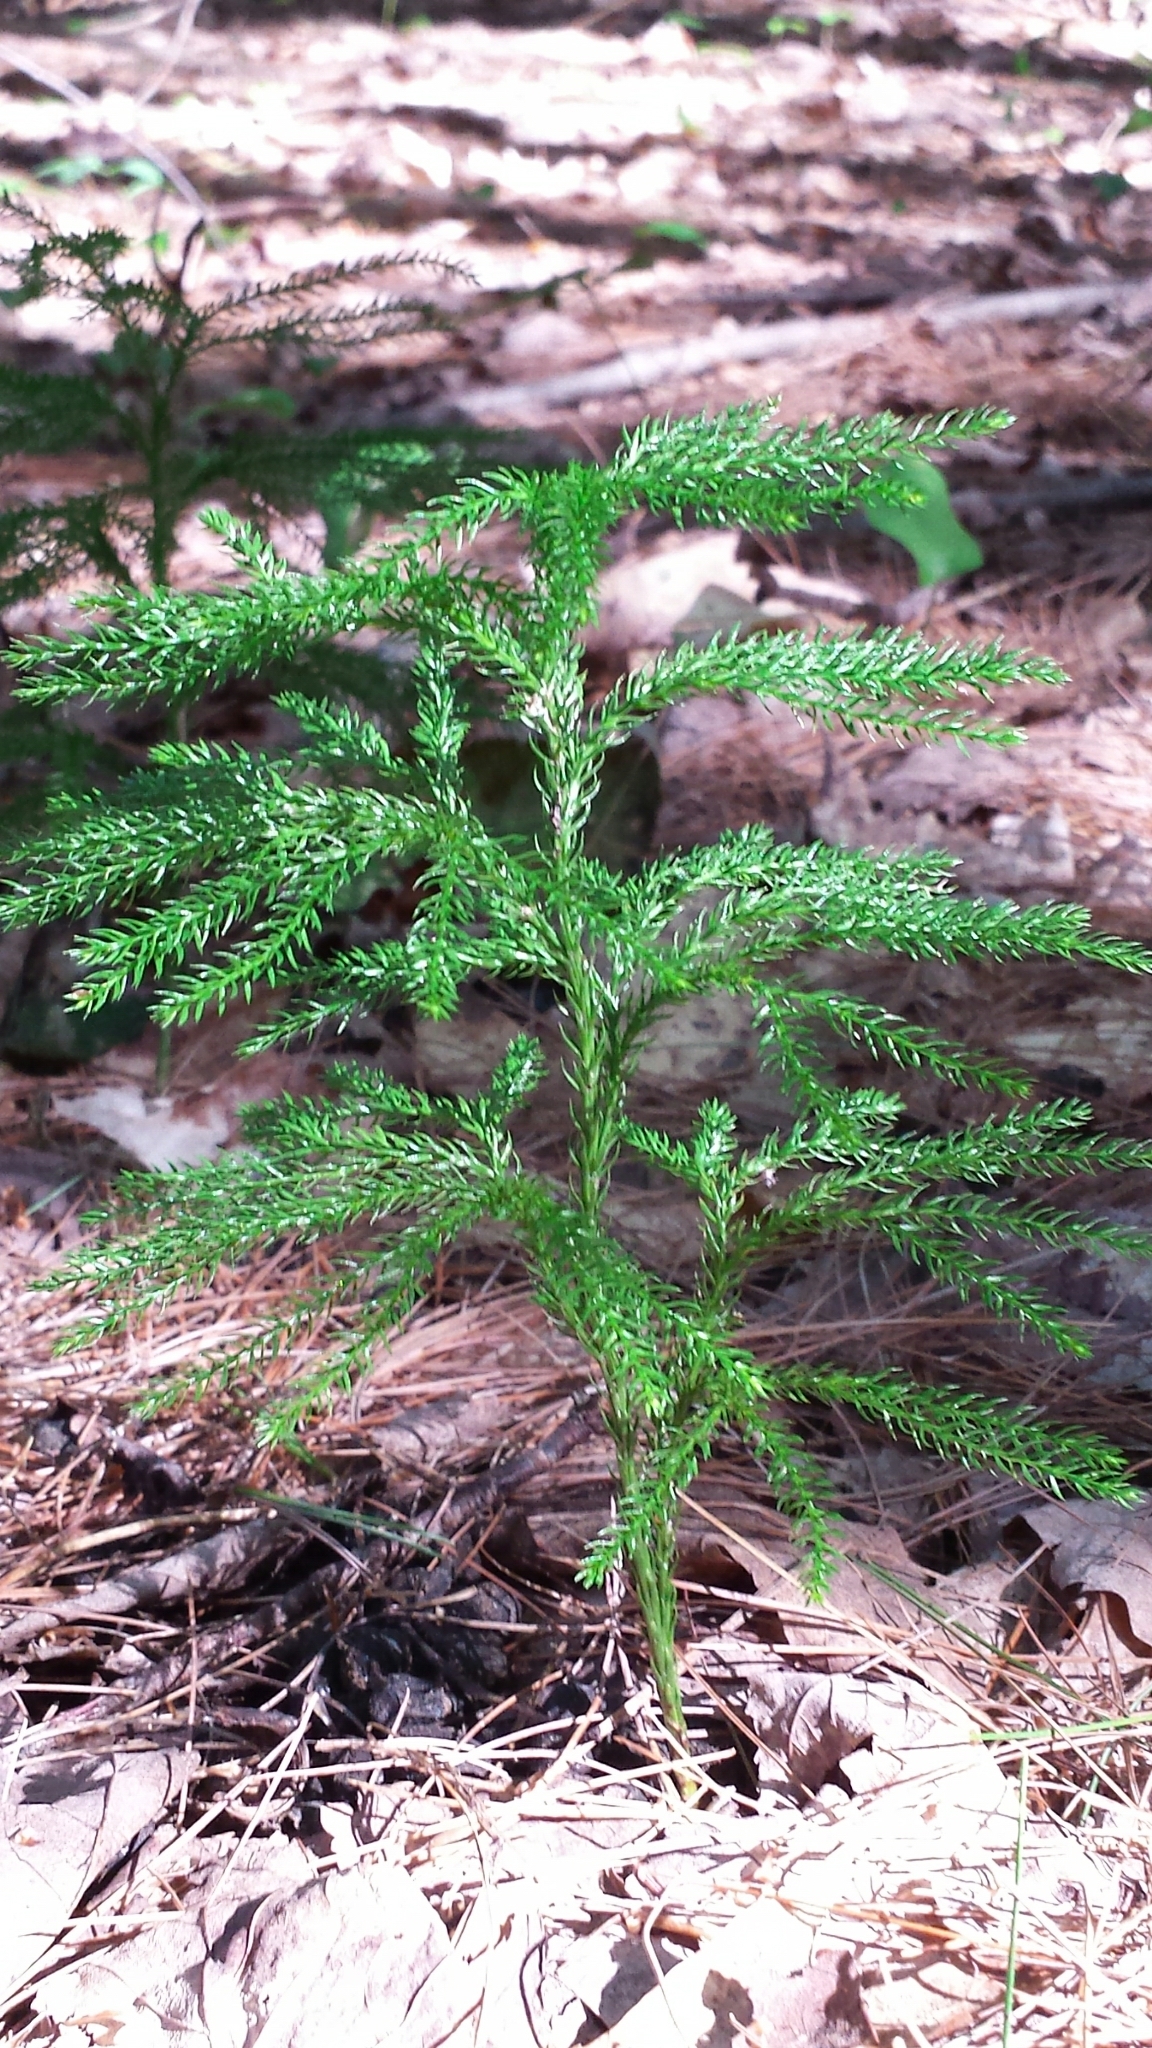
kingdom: Plantae
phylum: Tracheophyta
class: Lycopodiopsida
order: Lycopodiales
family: Lycopodiaceae
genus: Dendrolycopodium
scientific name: Dendrolycopodium obscurum
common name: Common ground-pine
